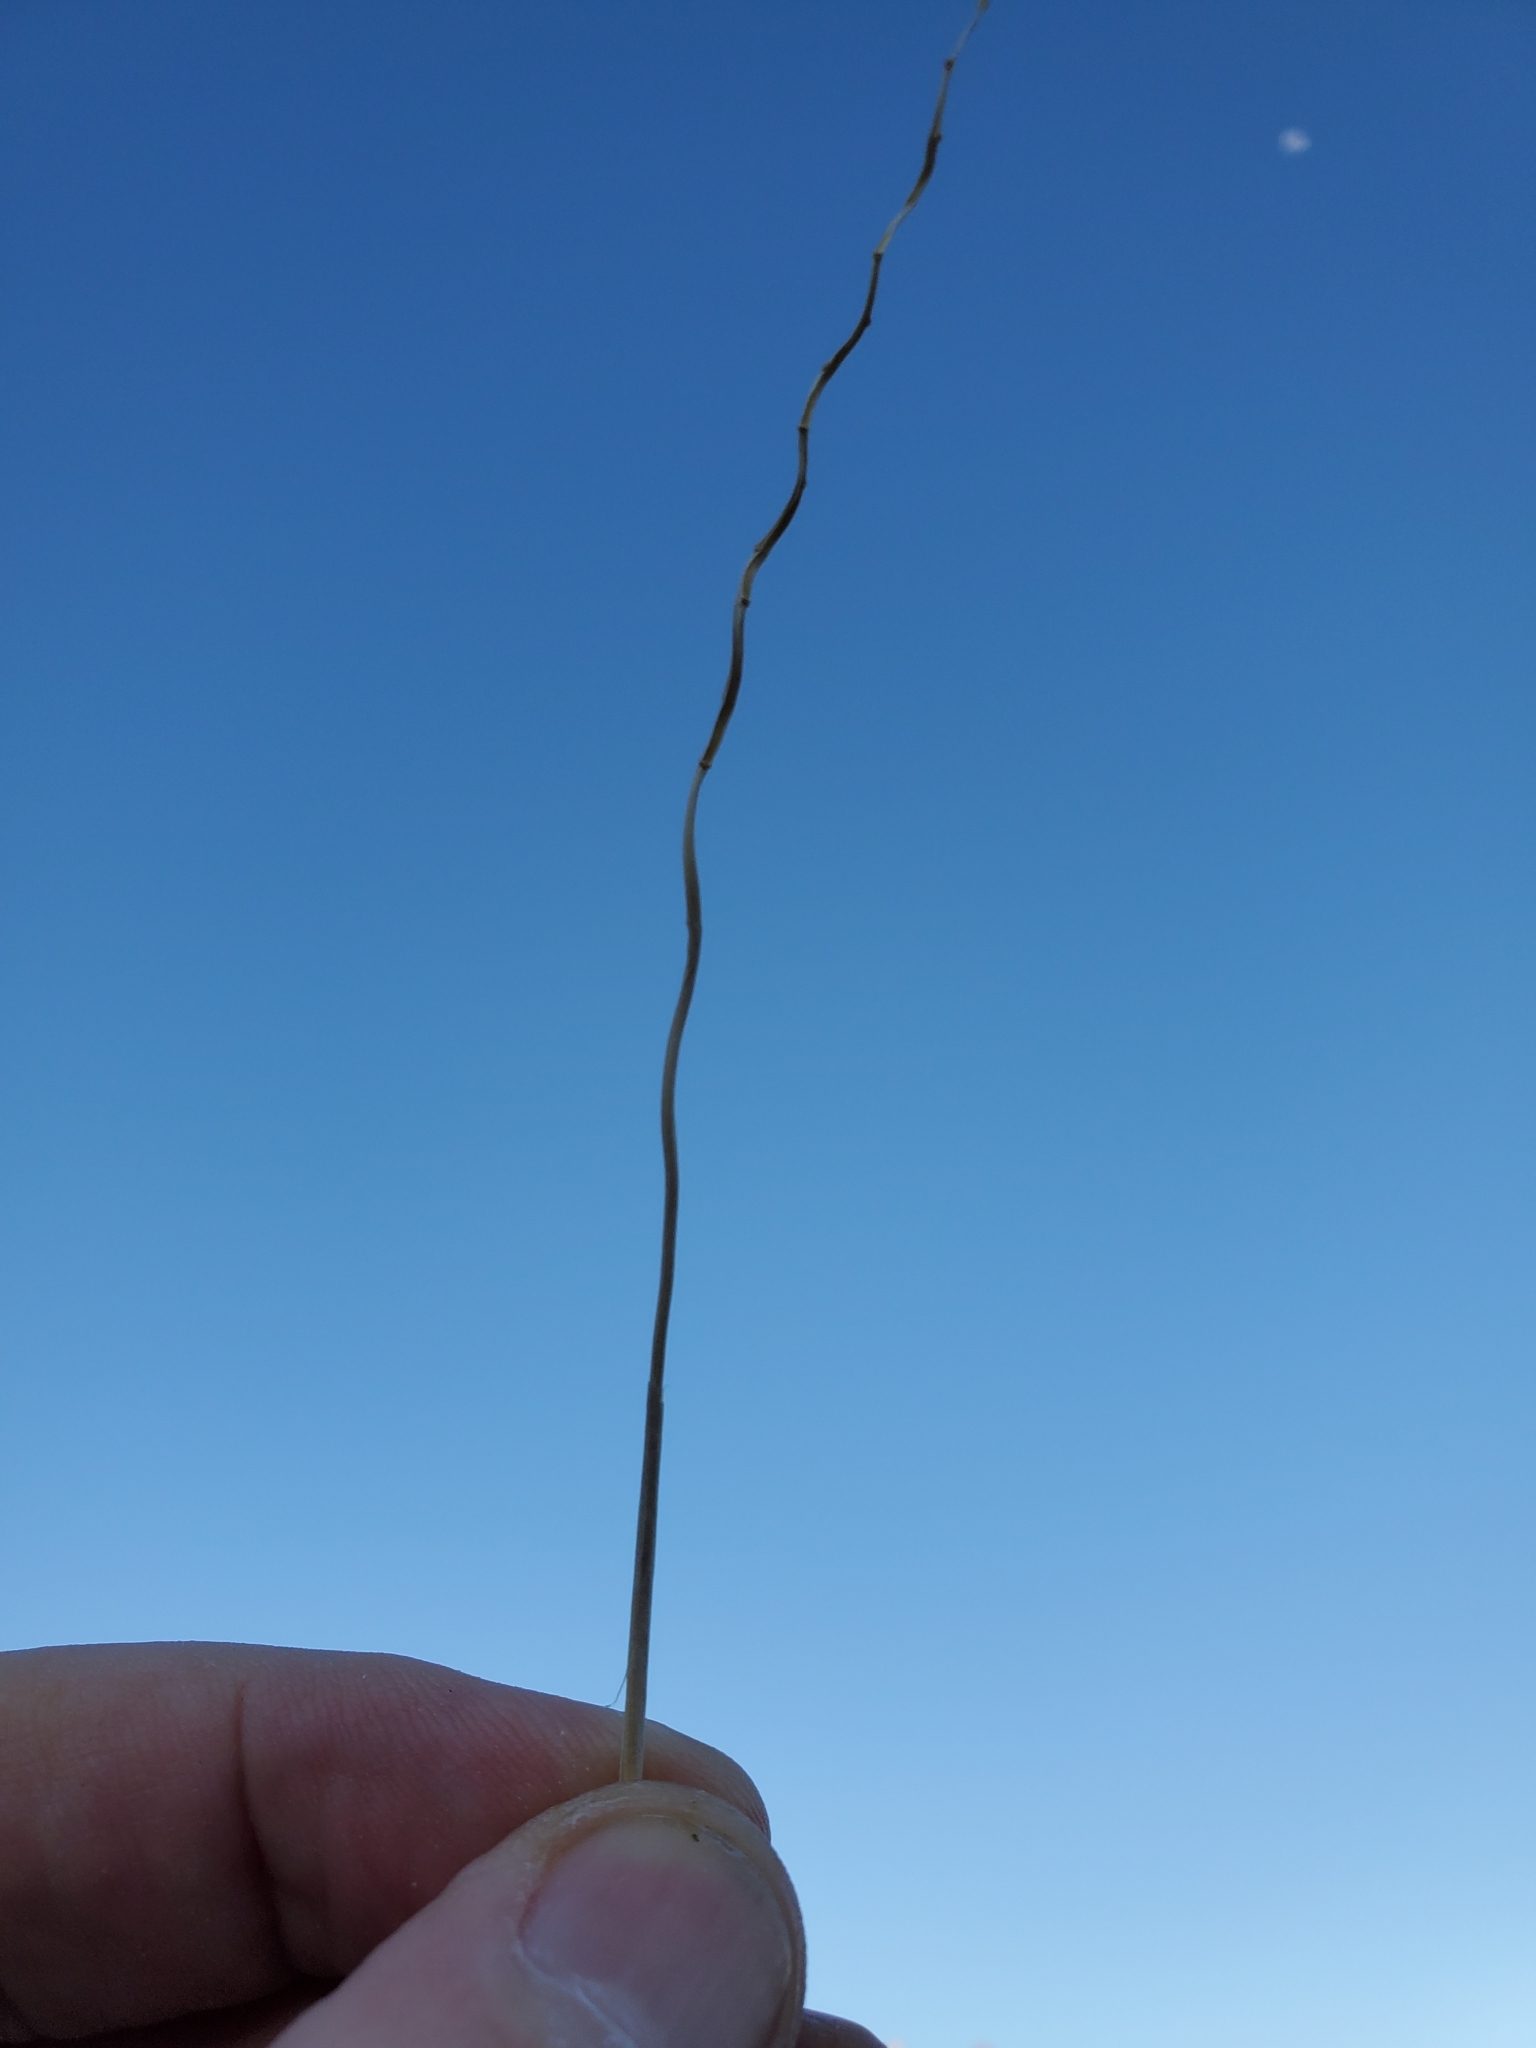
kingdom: Plantae
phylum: Tracheophyta
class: Liliopsida
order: Poales
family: Poaceae
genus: Hilaria
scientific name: Hilaria rigida
